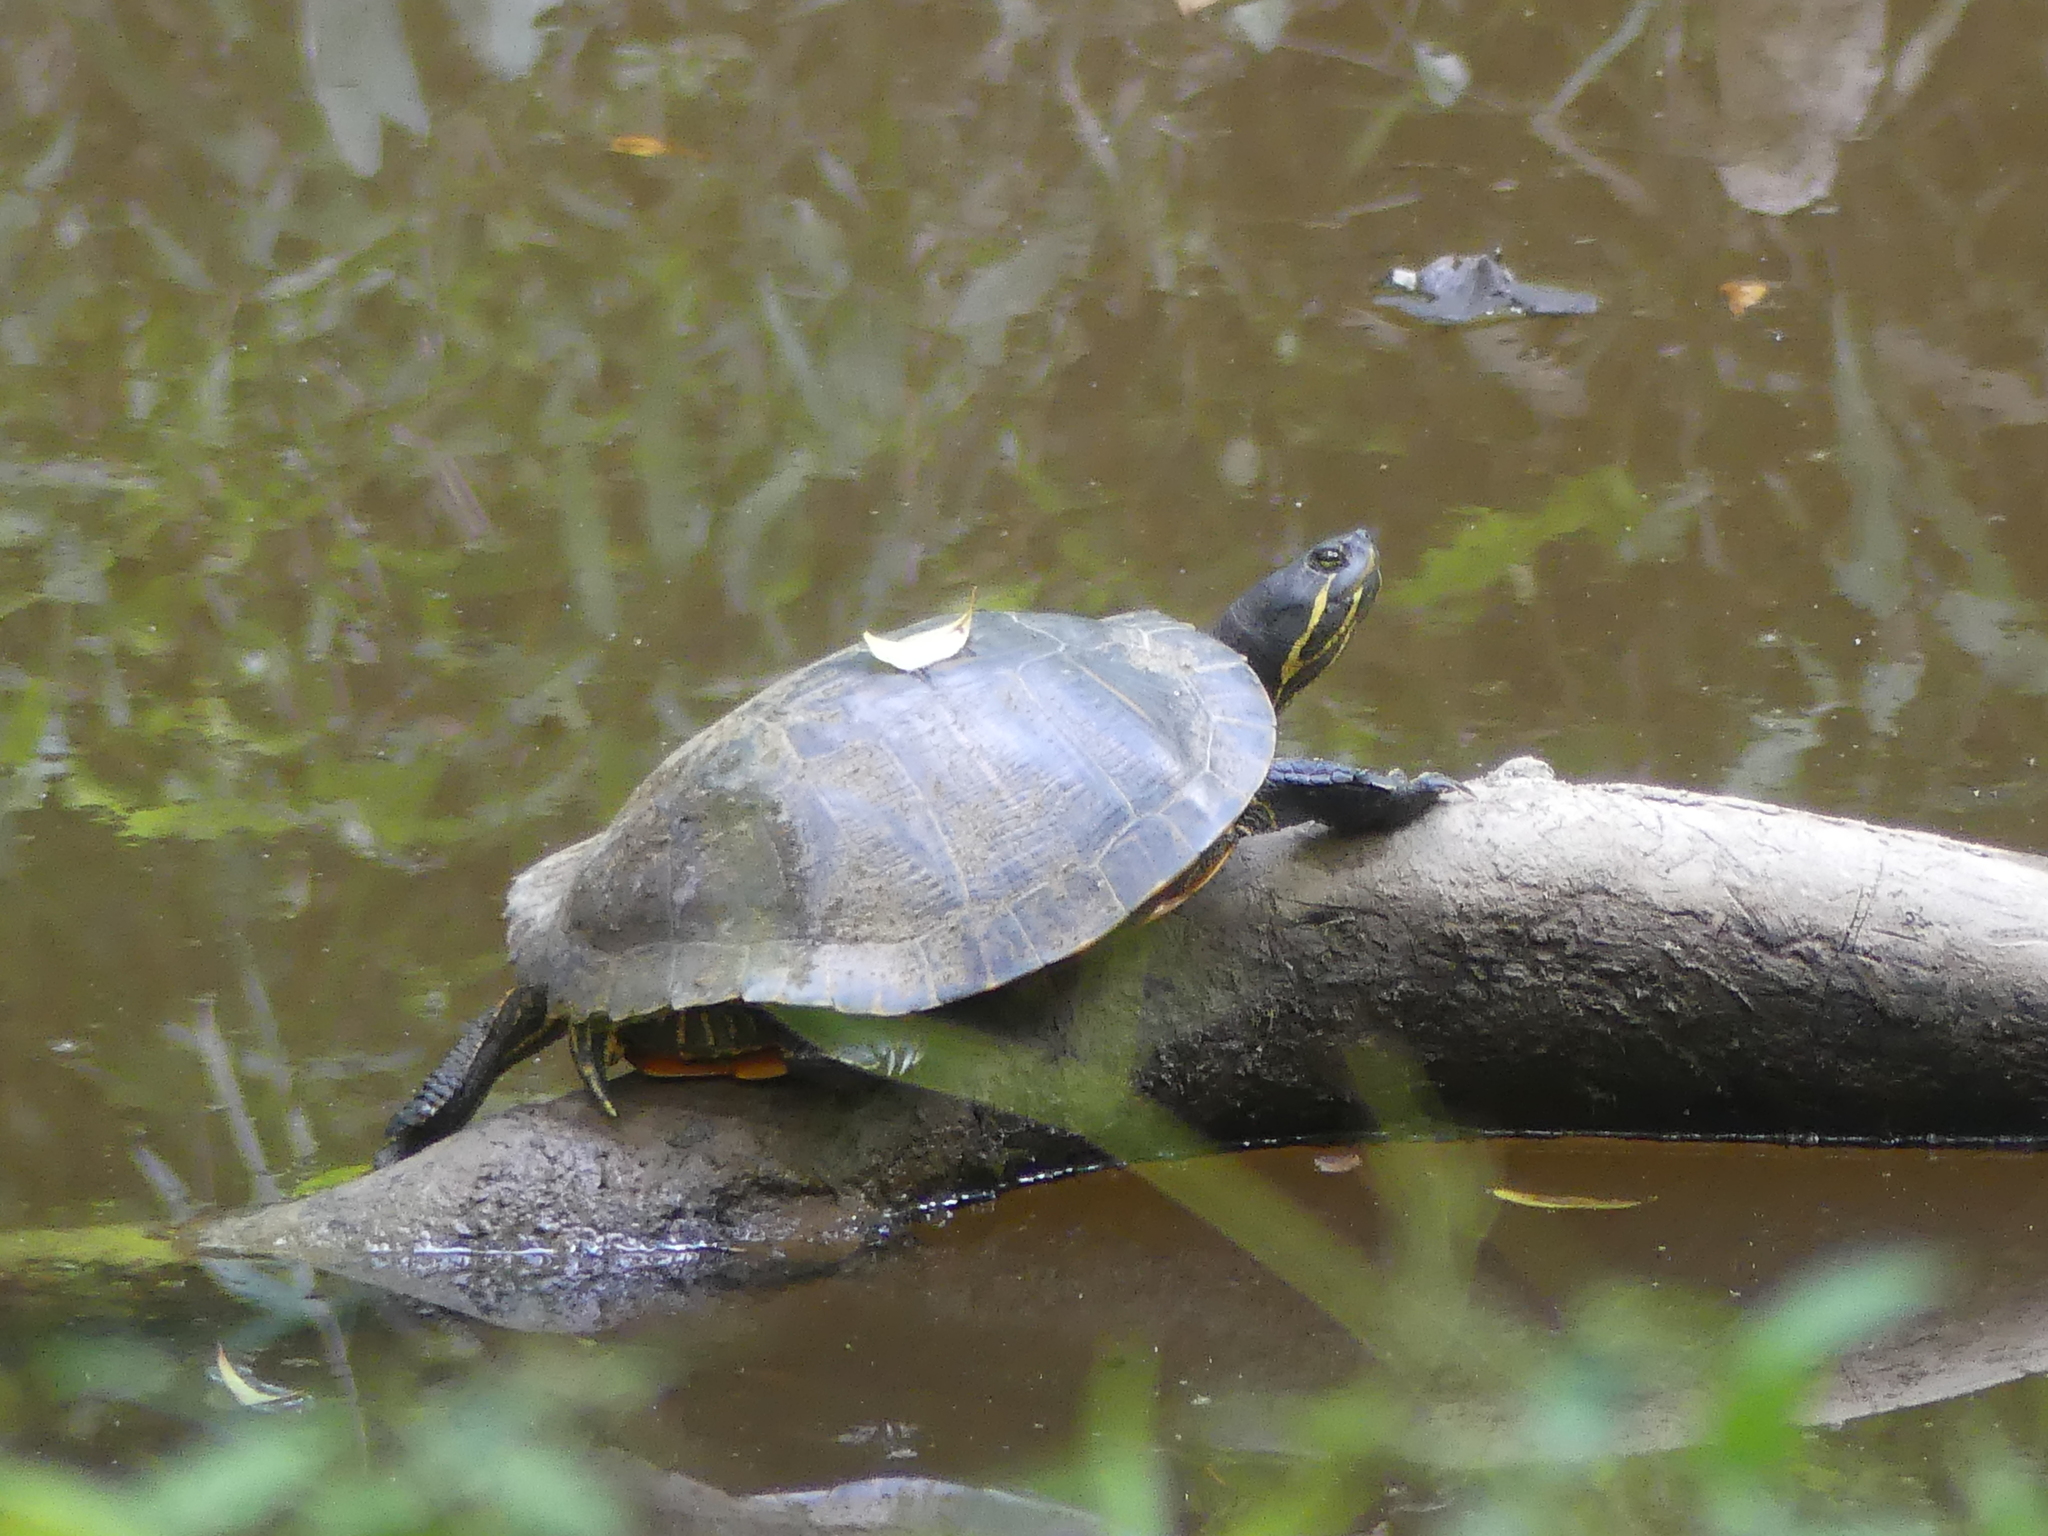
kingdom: Animalia
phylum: Chordata
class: Testudines
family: Emydidae
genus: Pseudemys
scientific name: Pseudemys concinna
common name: Eastern river cooter
